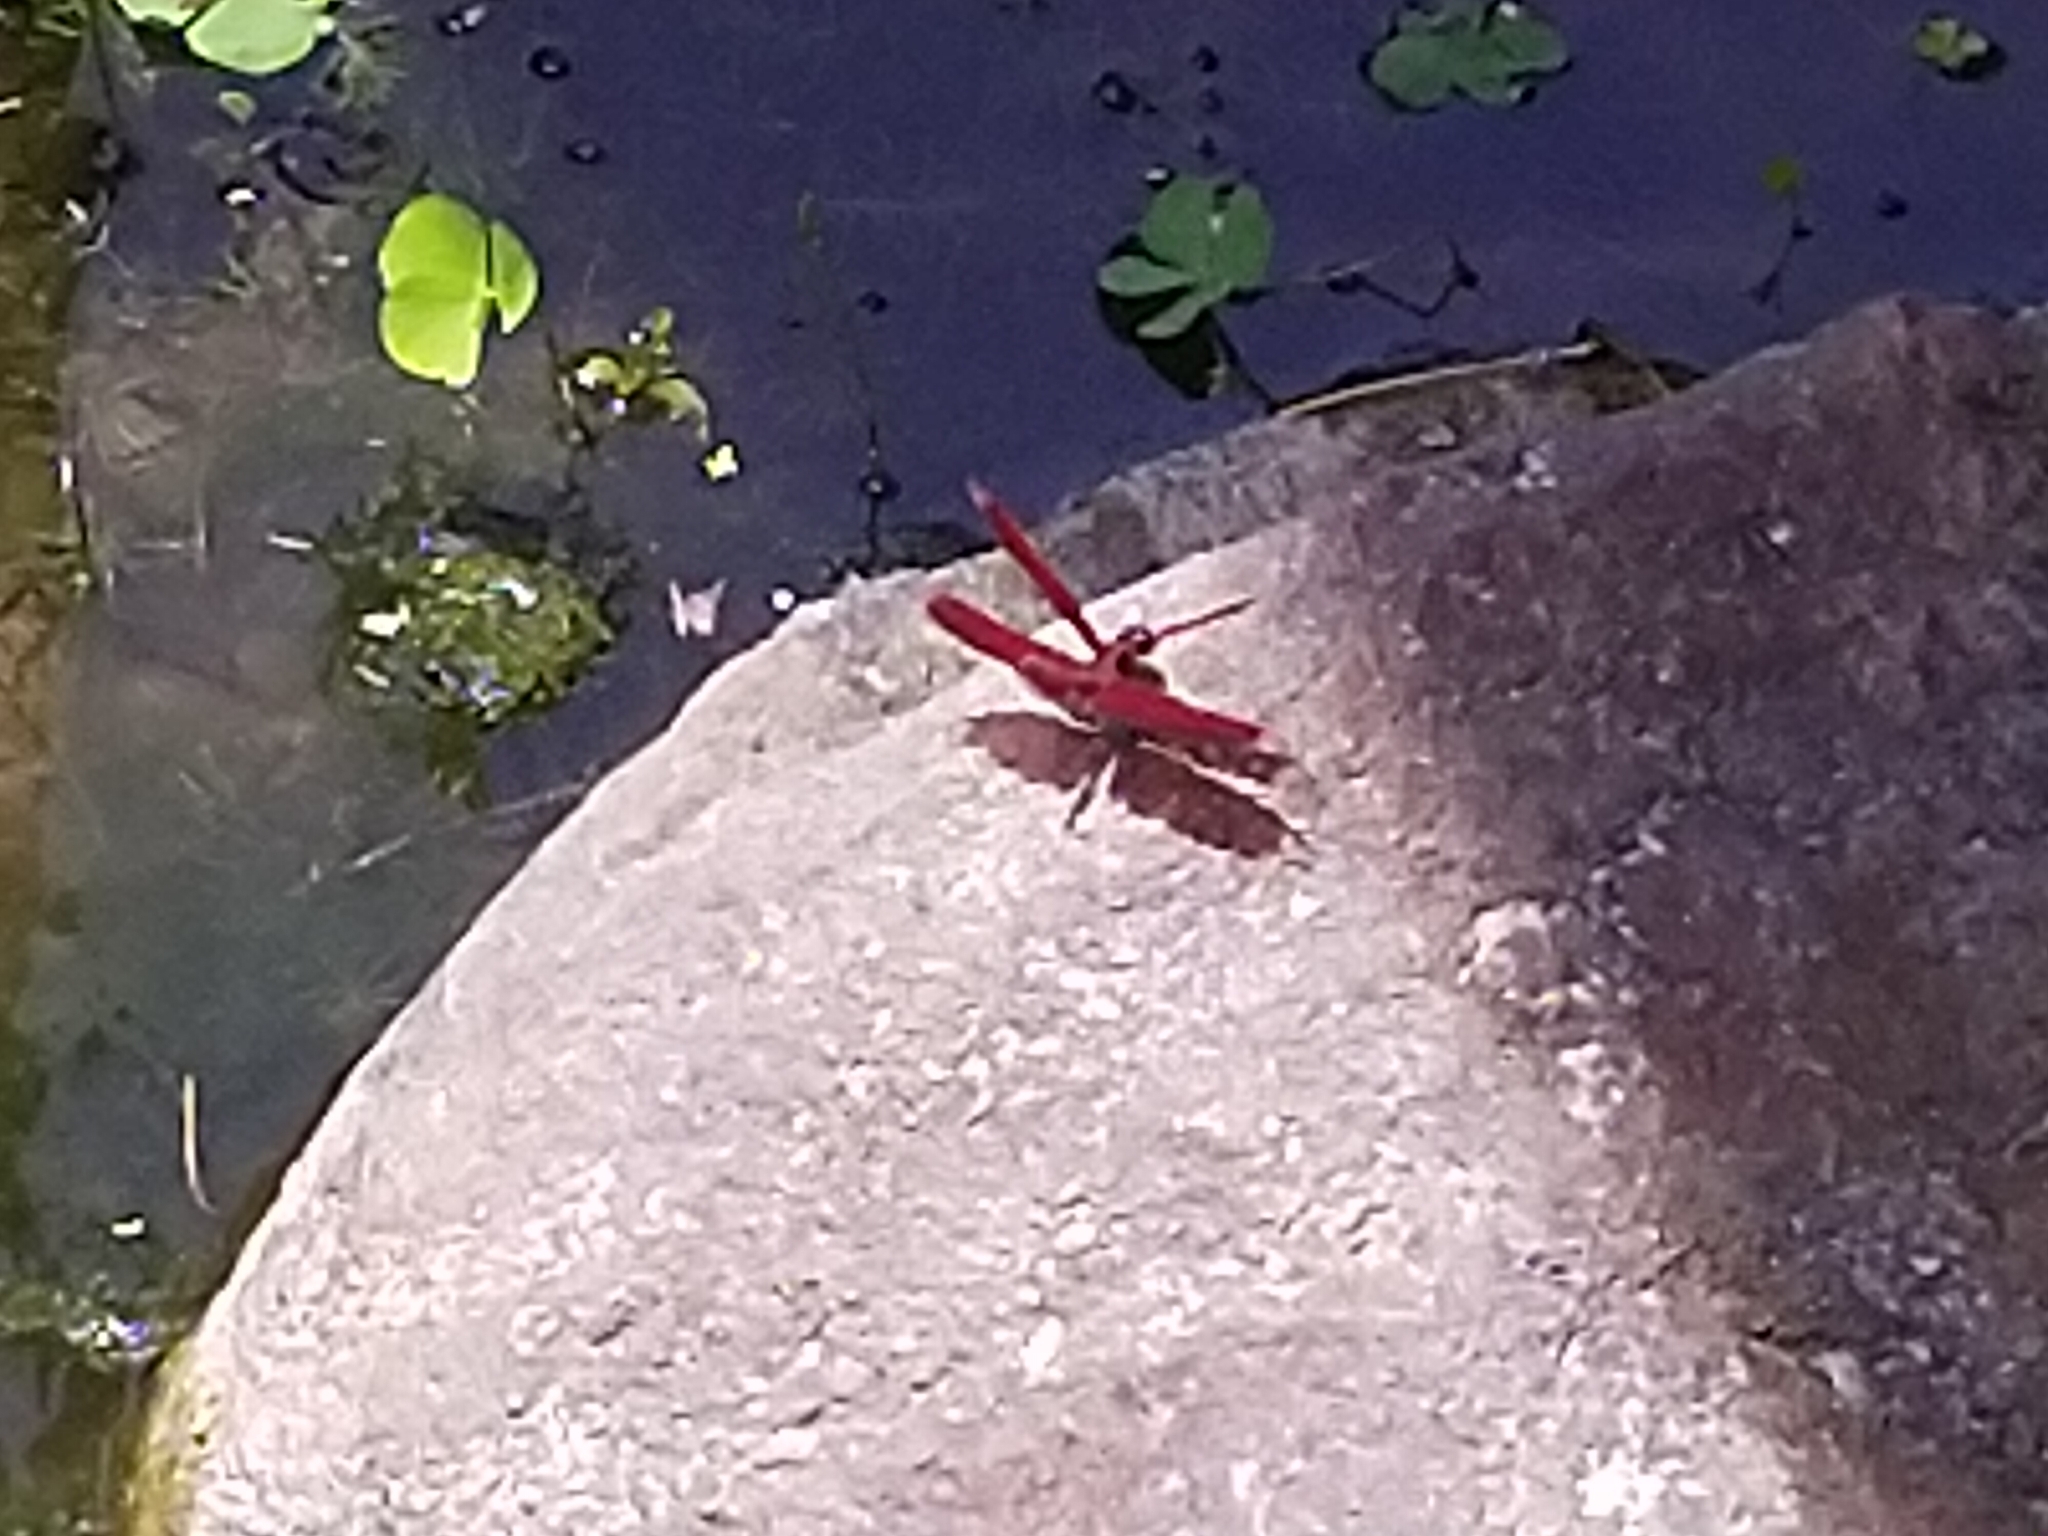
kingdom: Animalia
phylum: Arthropoda
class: Insecta
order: Odonata
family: Libellulidae
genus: Neurothemis
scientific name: Neurothemis taiwanensis
